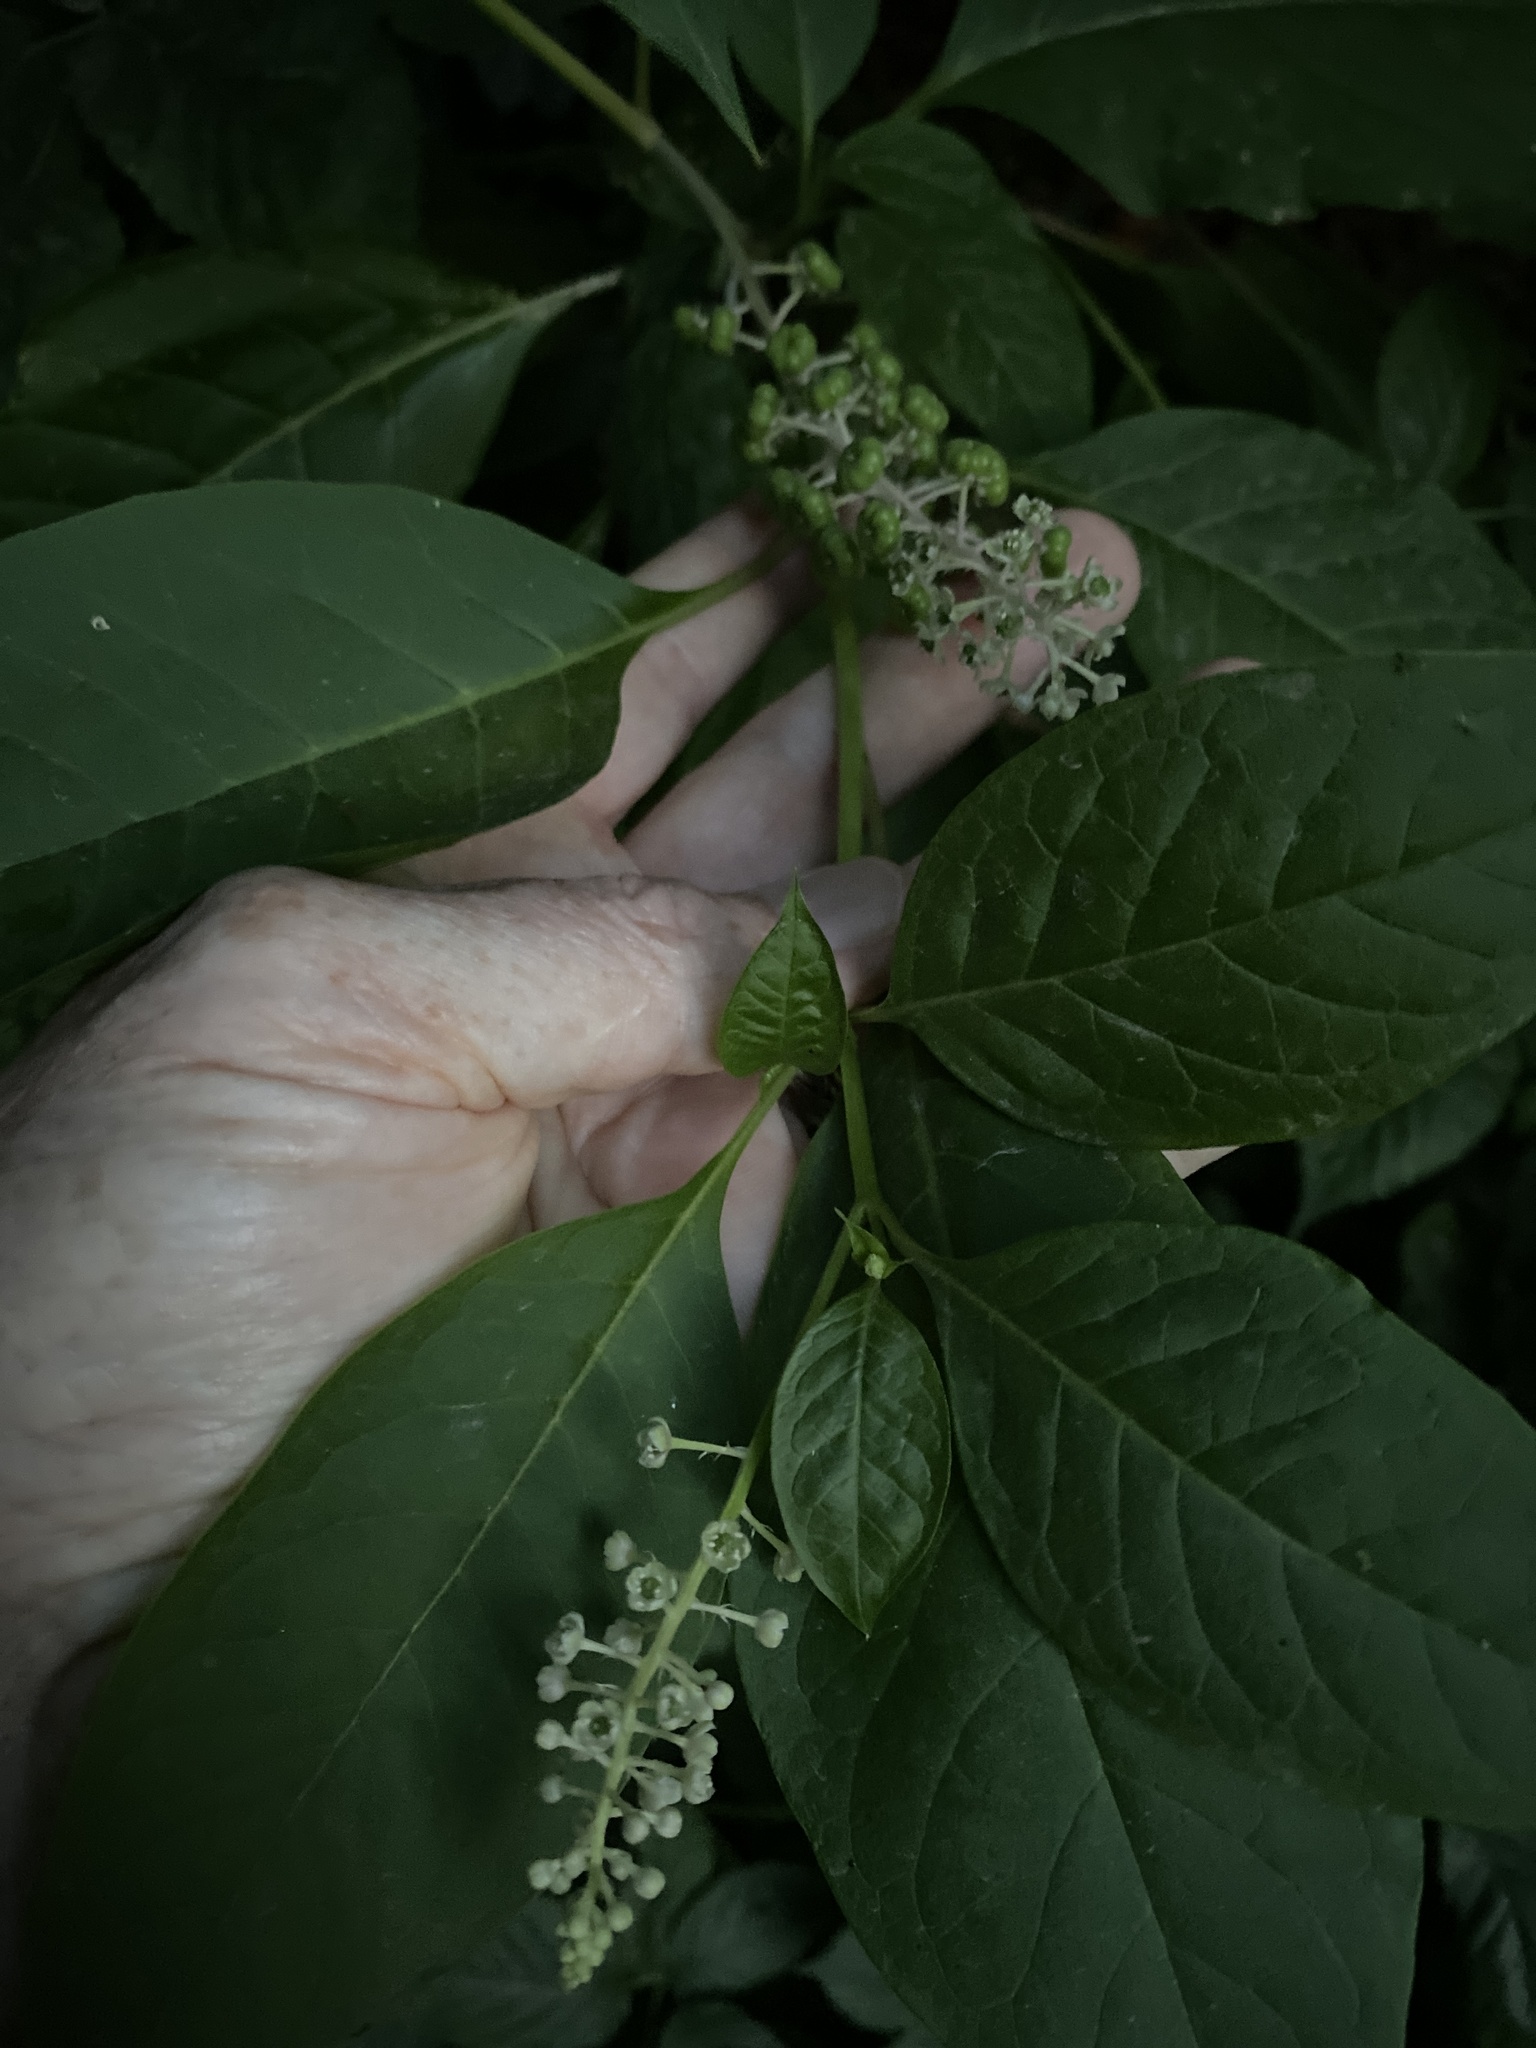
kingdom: Plantae
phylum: Tracheophyta
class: Magnoliopsida
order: Caryophyllales
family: Phytolaccaceae
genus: Phytolacca
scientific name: Phytolacca americana
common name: American pokeweed
